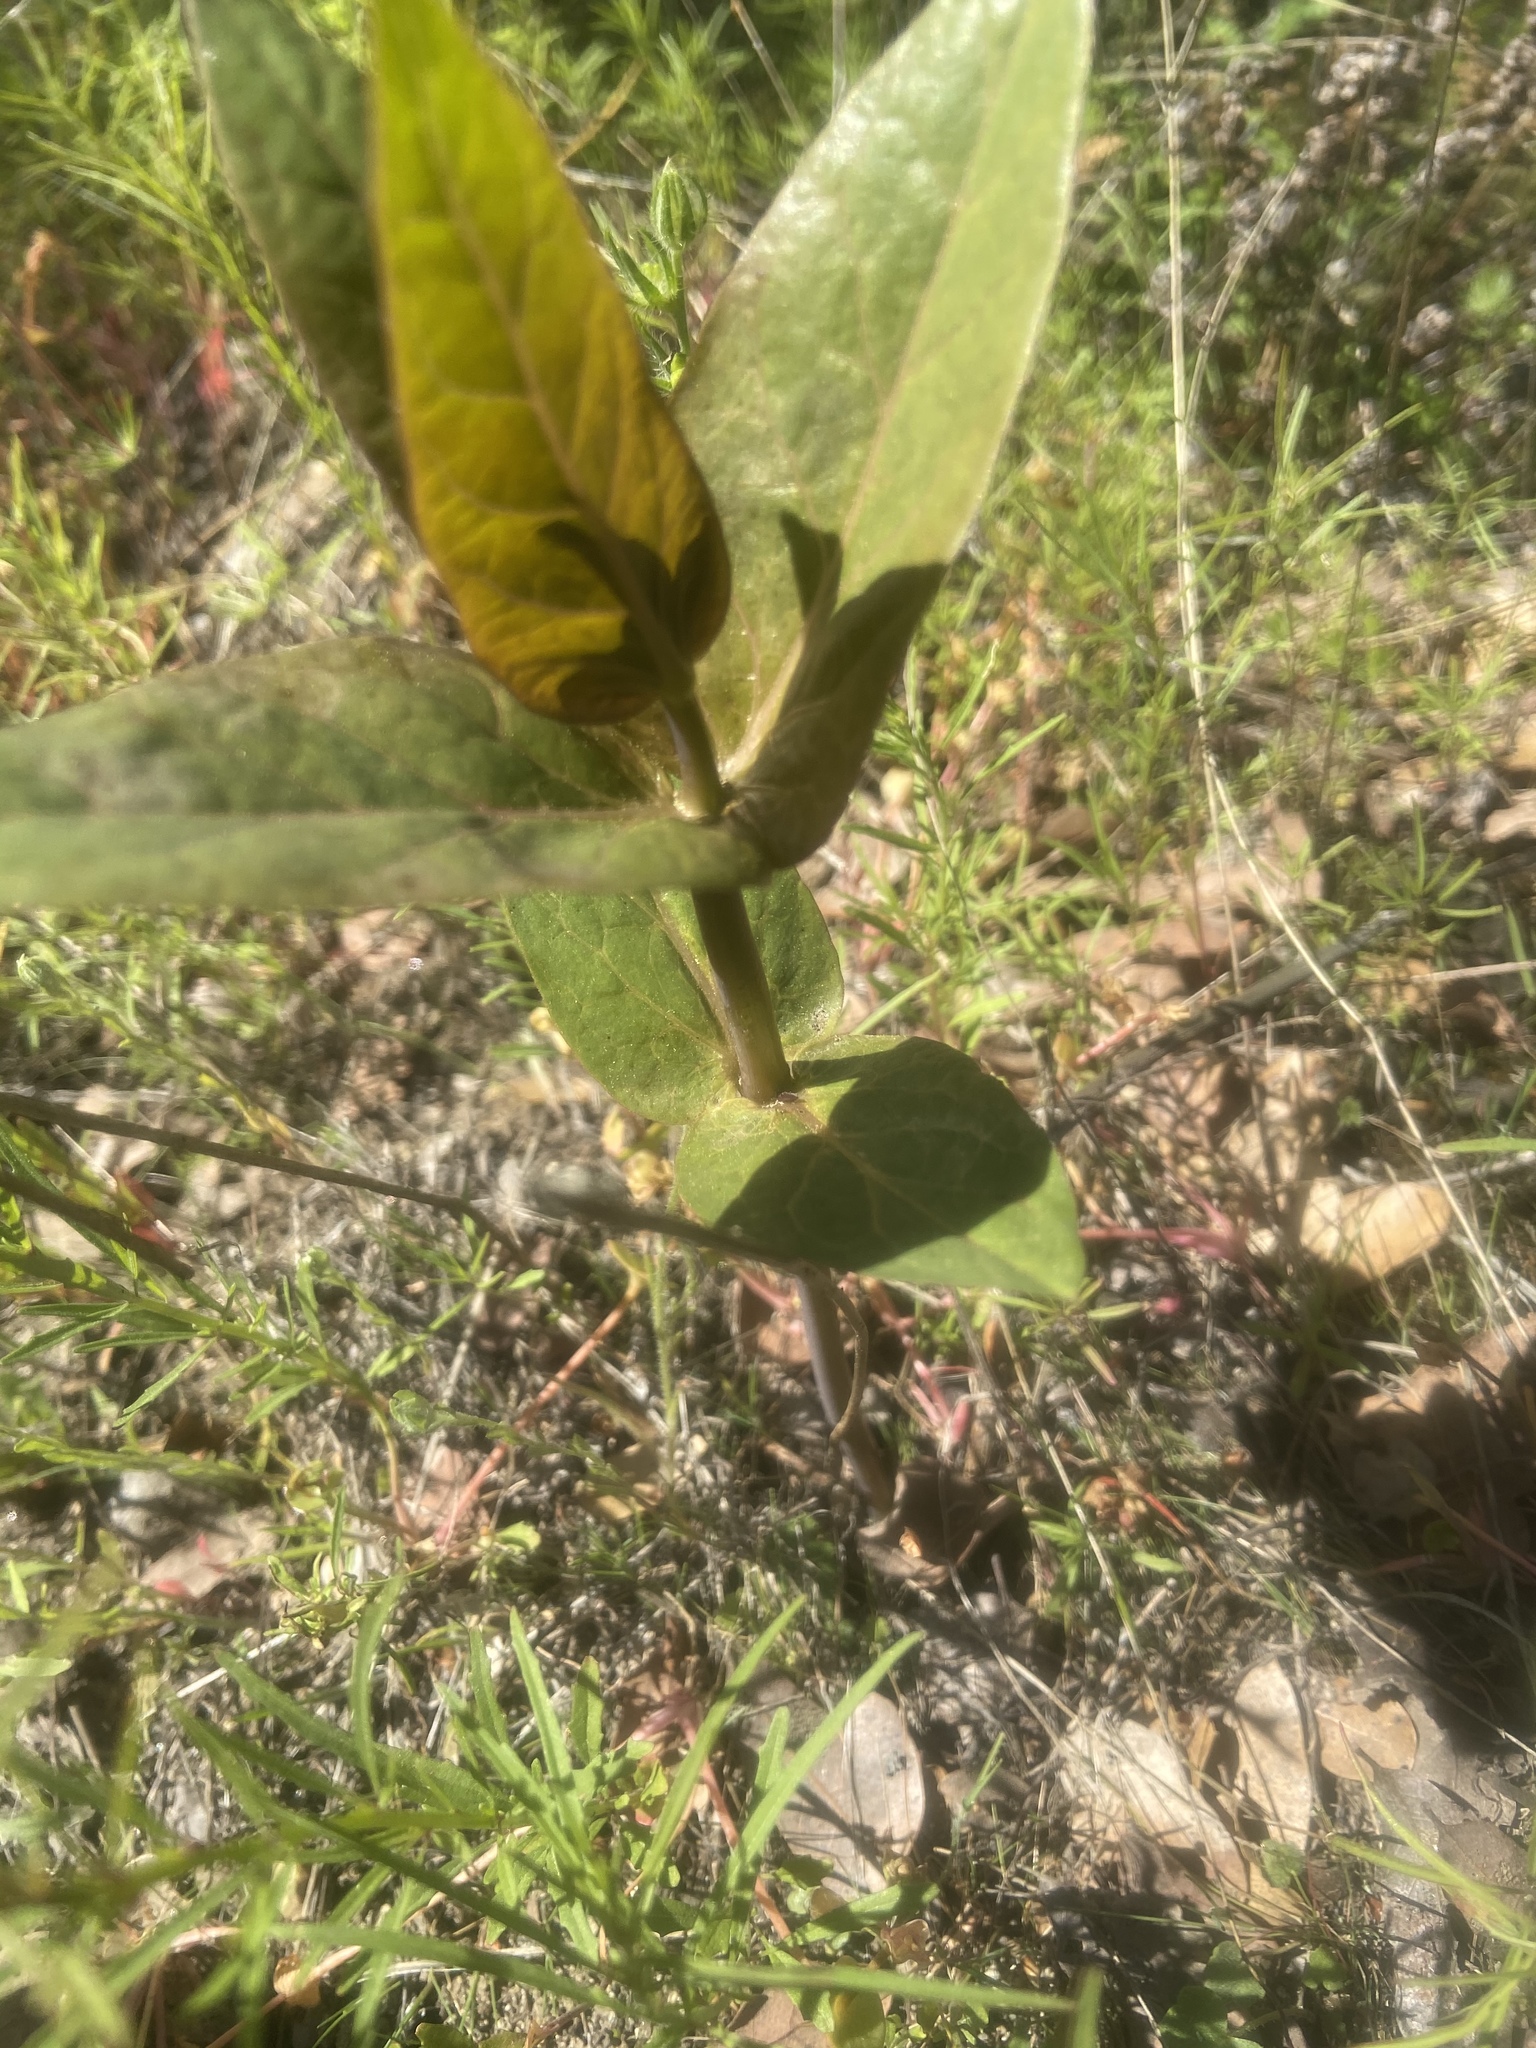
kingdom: Plantae
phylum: Tracheophyta
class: Magnoliopsida
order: Gentianales
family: Apocynaceae
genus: Asclepias
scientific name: Asclepias cordifolia
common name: Purple milkweed
